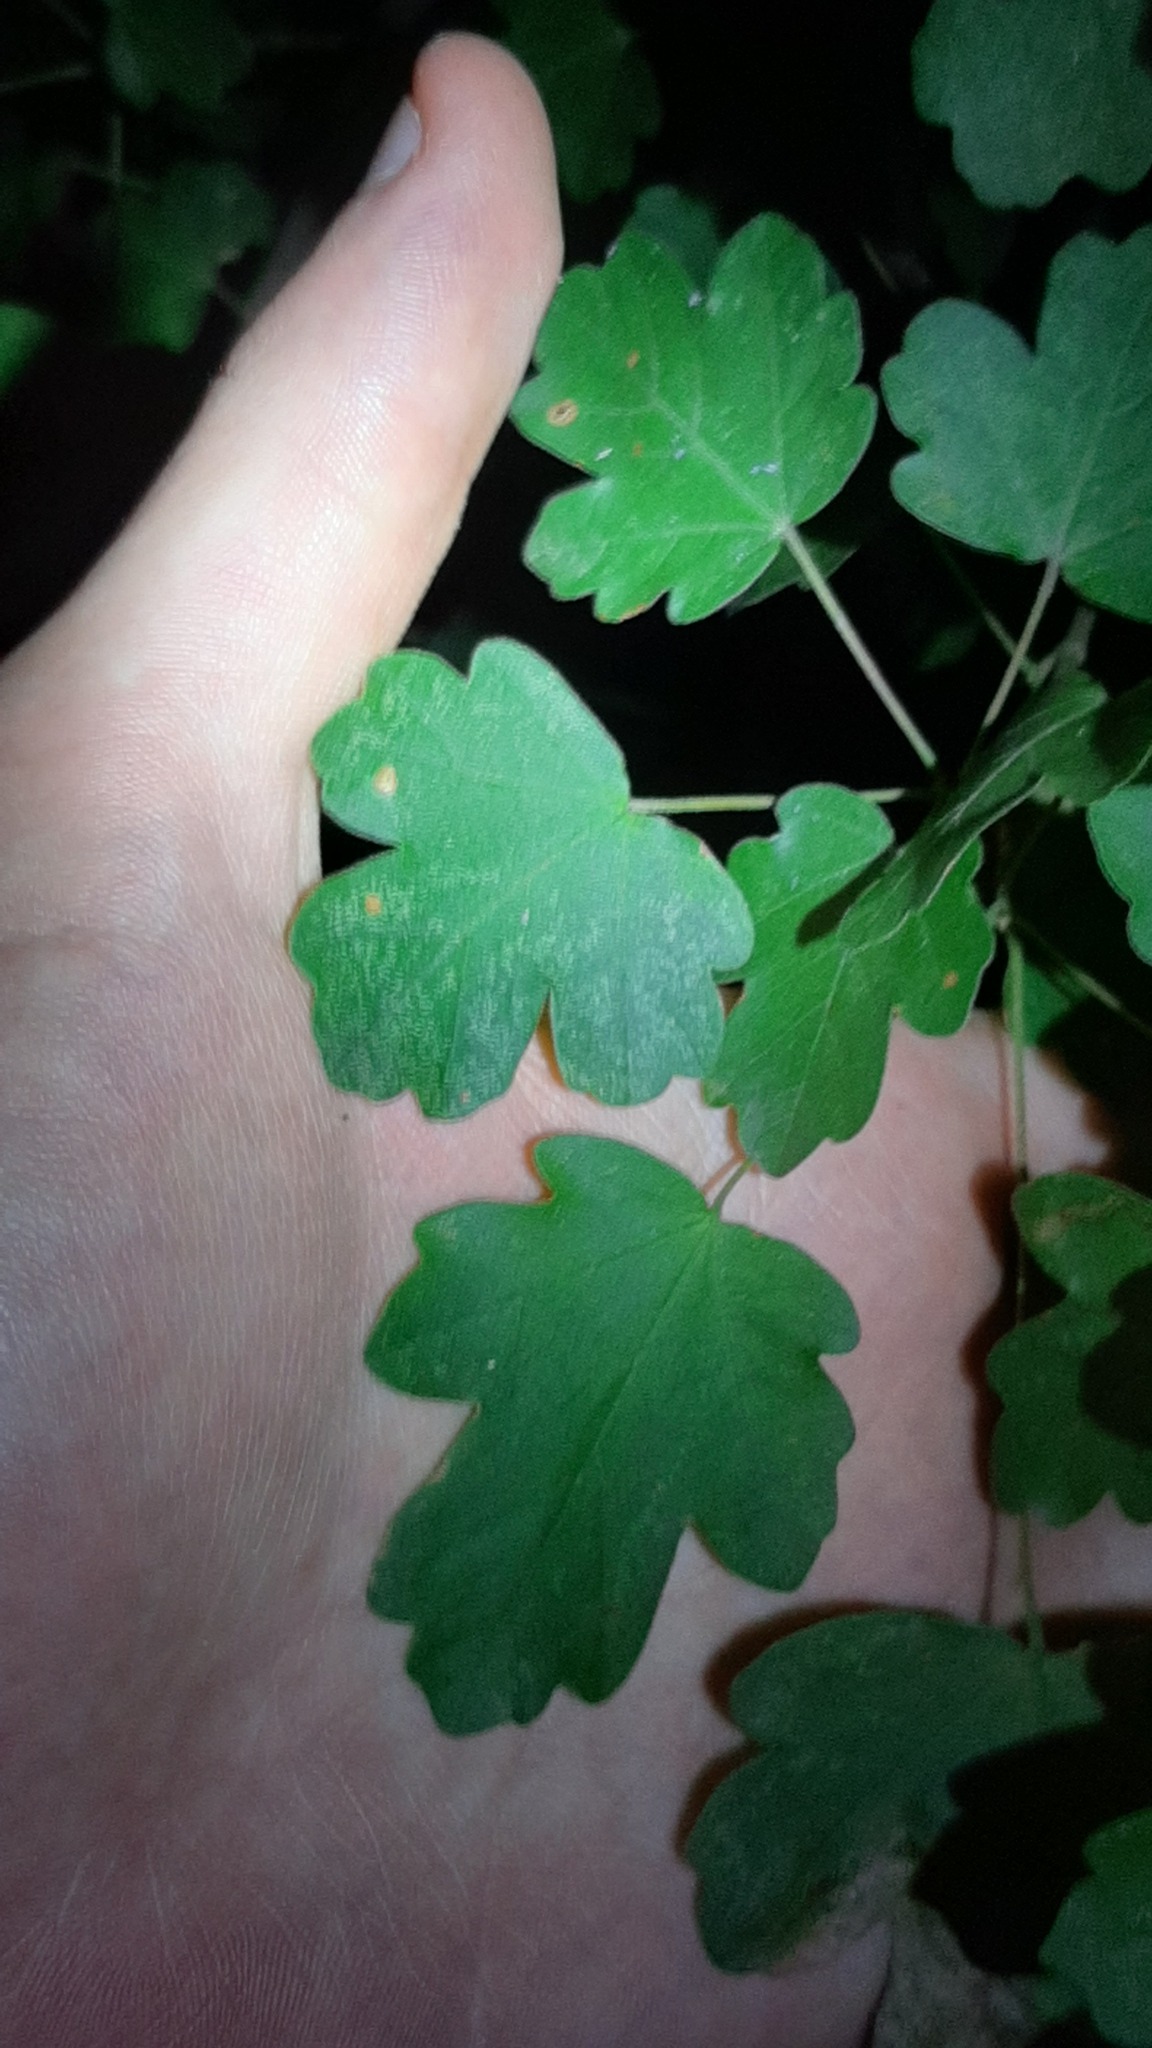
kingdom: Plantae
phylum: Tracheophyta
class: Magnoliopsida
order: Sapindales
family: Sapindaceae
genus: Acer
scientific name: Acer campestre
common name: Field maple
